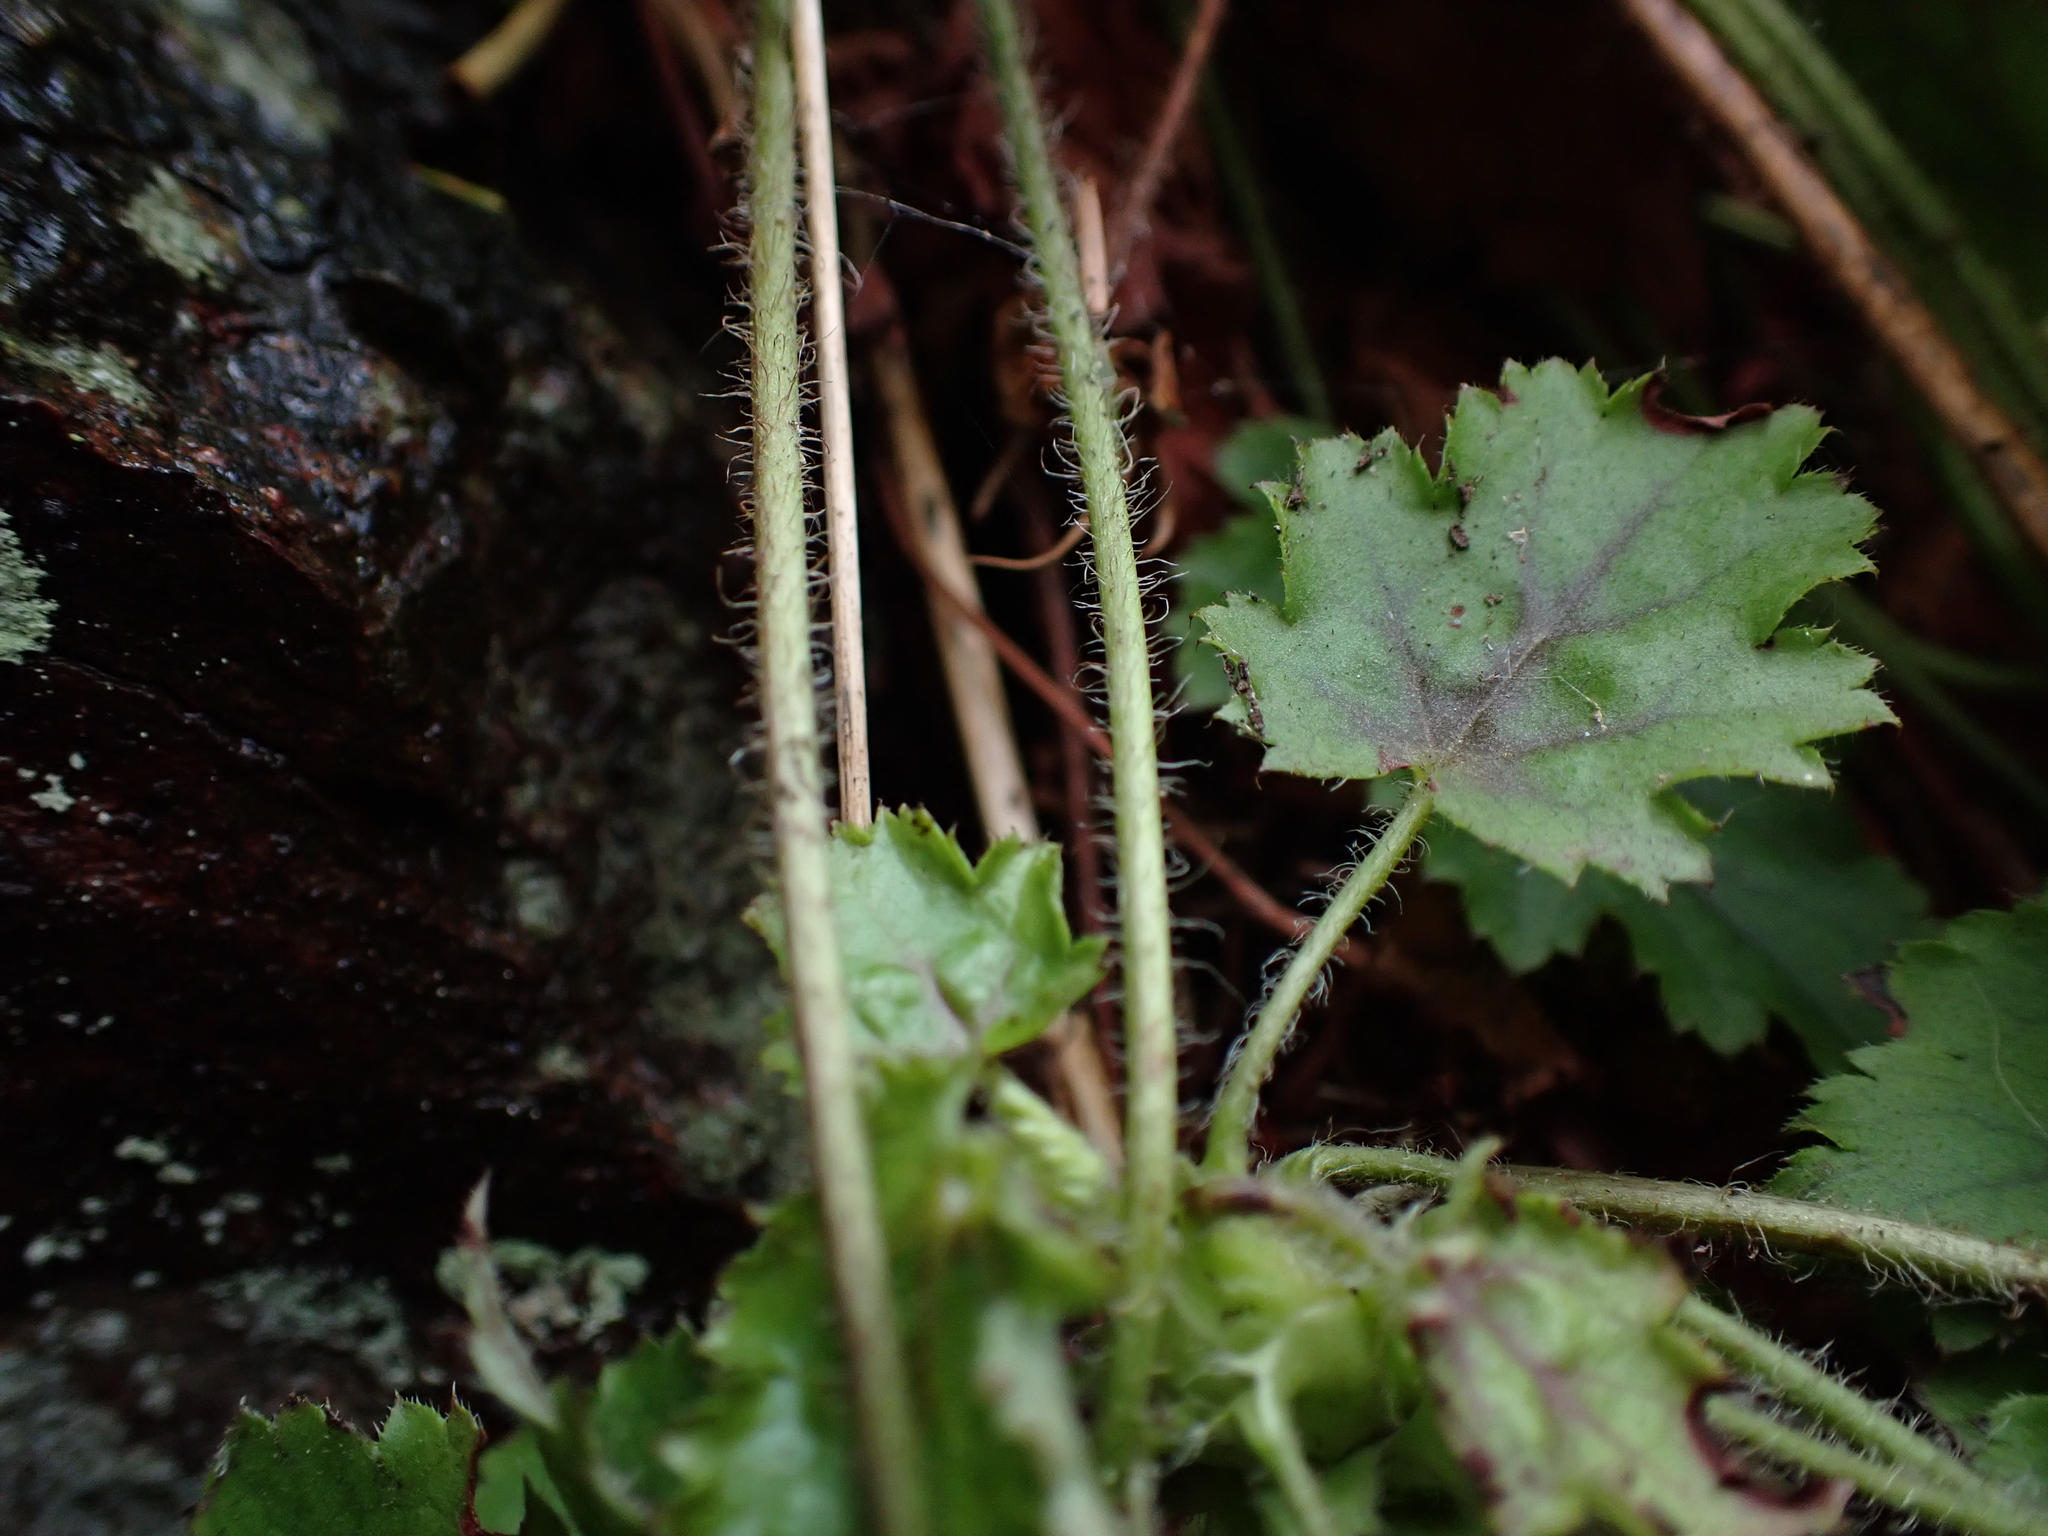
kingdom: Plantae
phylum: Tracheophyta
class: Magnoliopsida
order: Saxifragales
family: Saxifragaceae
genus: Heuchera
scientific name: Heuchera micrantha
